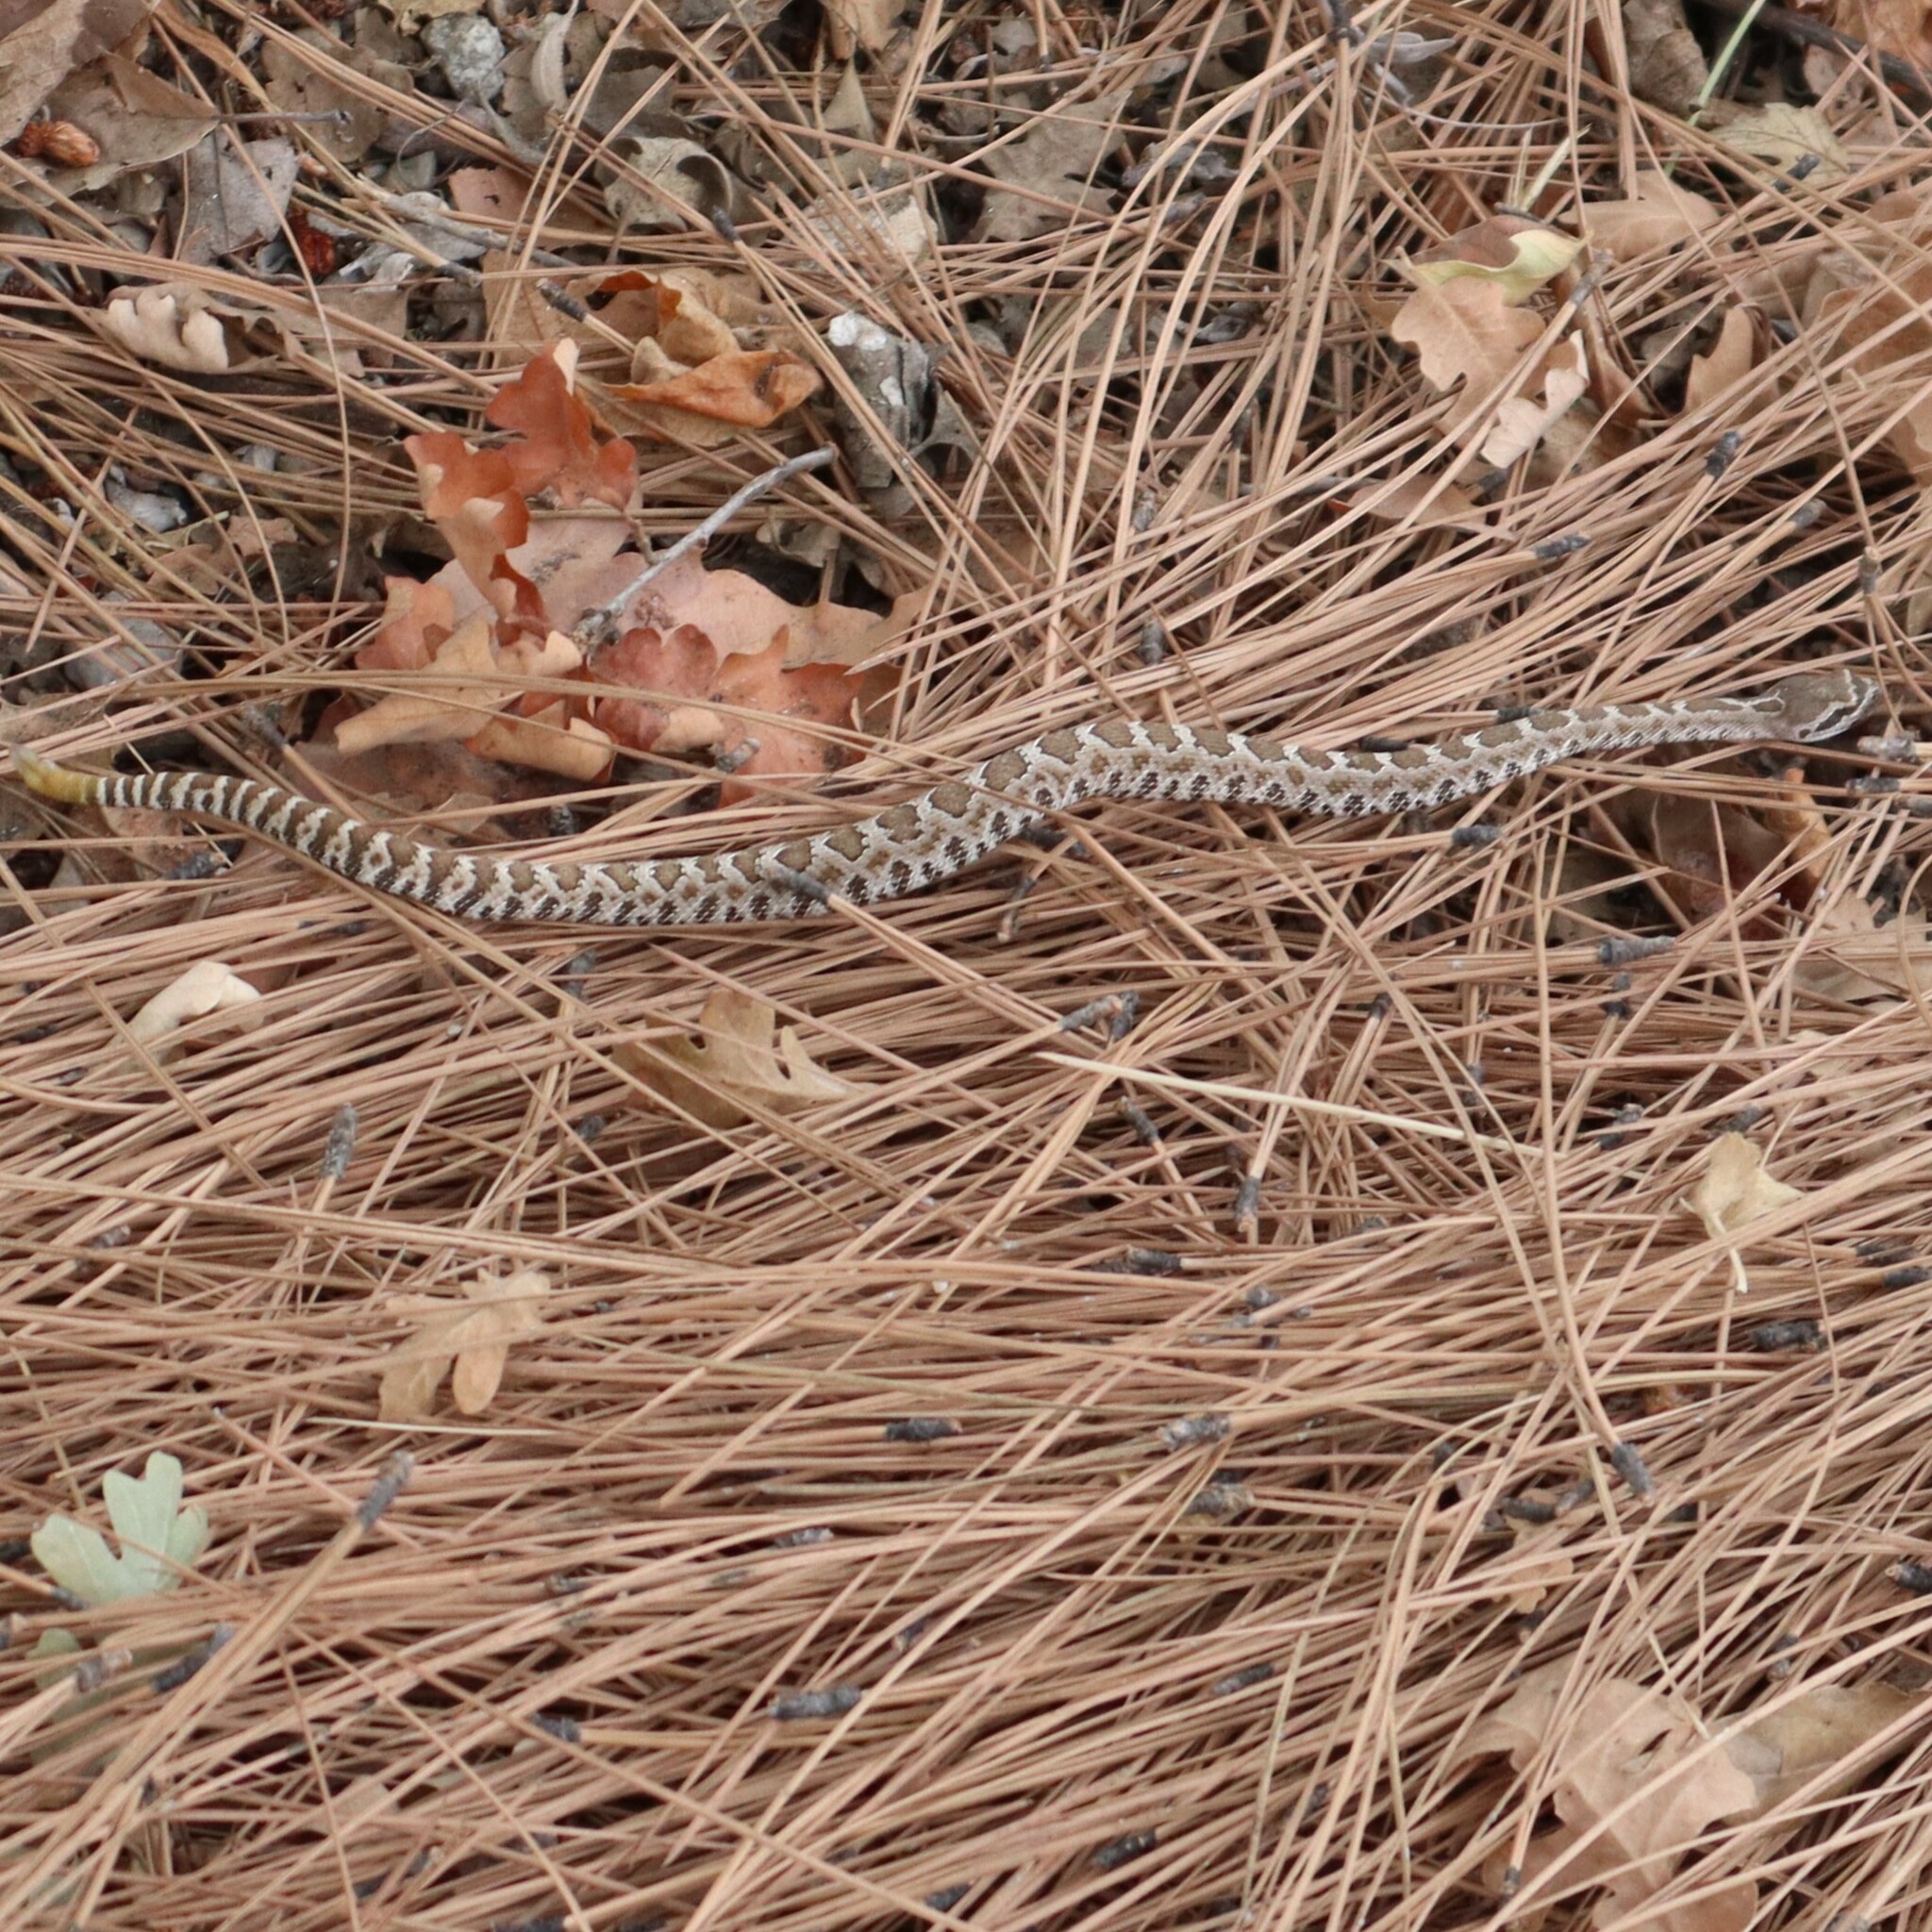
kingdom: Animalia
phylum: Chordata
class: Squamata
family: Viperidae
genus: Crotalus
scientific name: Crotalus oreganus
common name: Abyssus
